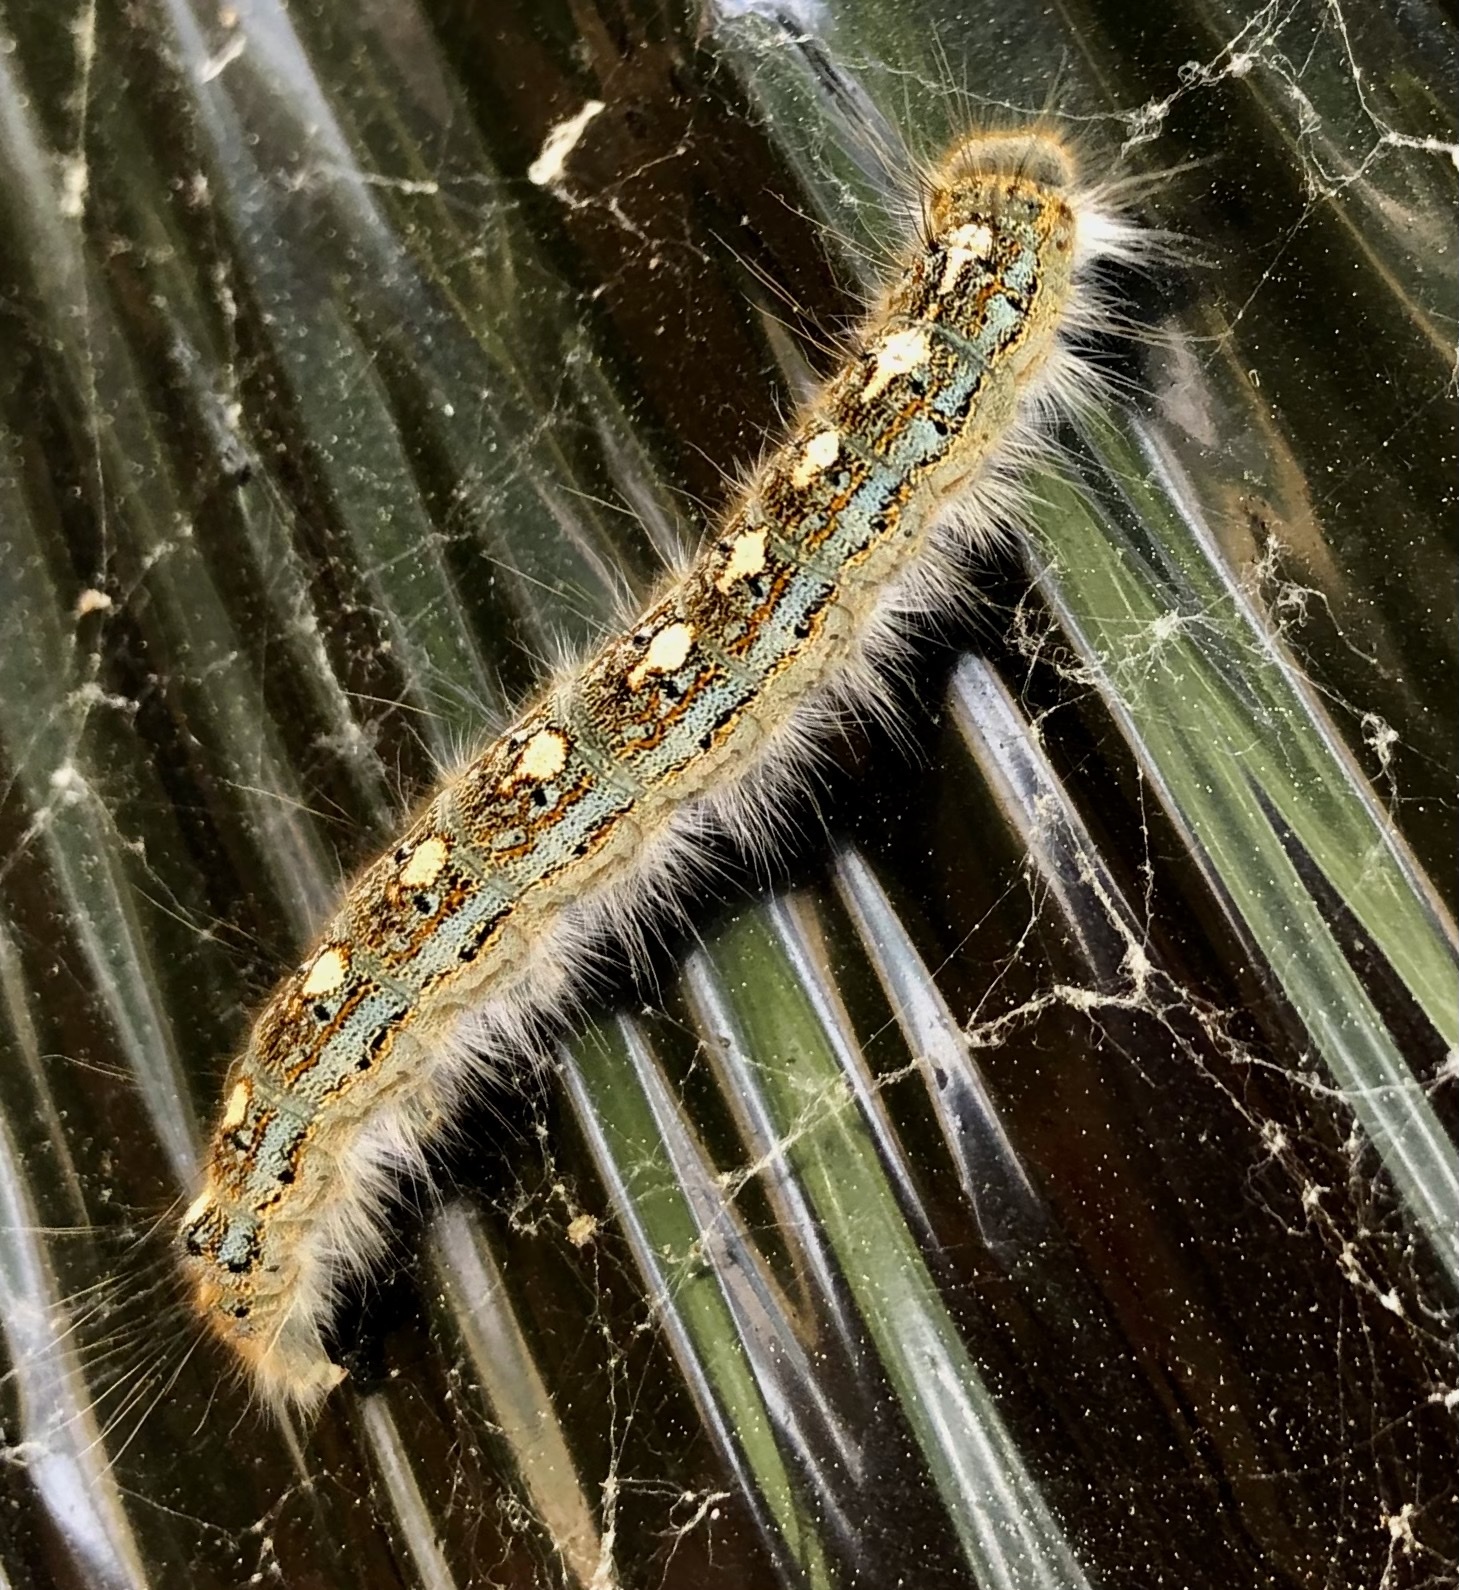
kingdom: Animalia
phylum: Arthropoda
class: Insecta
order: Lepidoptera
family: Lasiocampidae
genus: Malacosoma
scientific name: Malacosoma disstria
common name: Forest tent caterpillar
